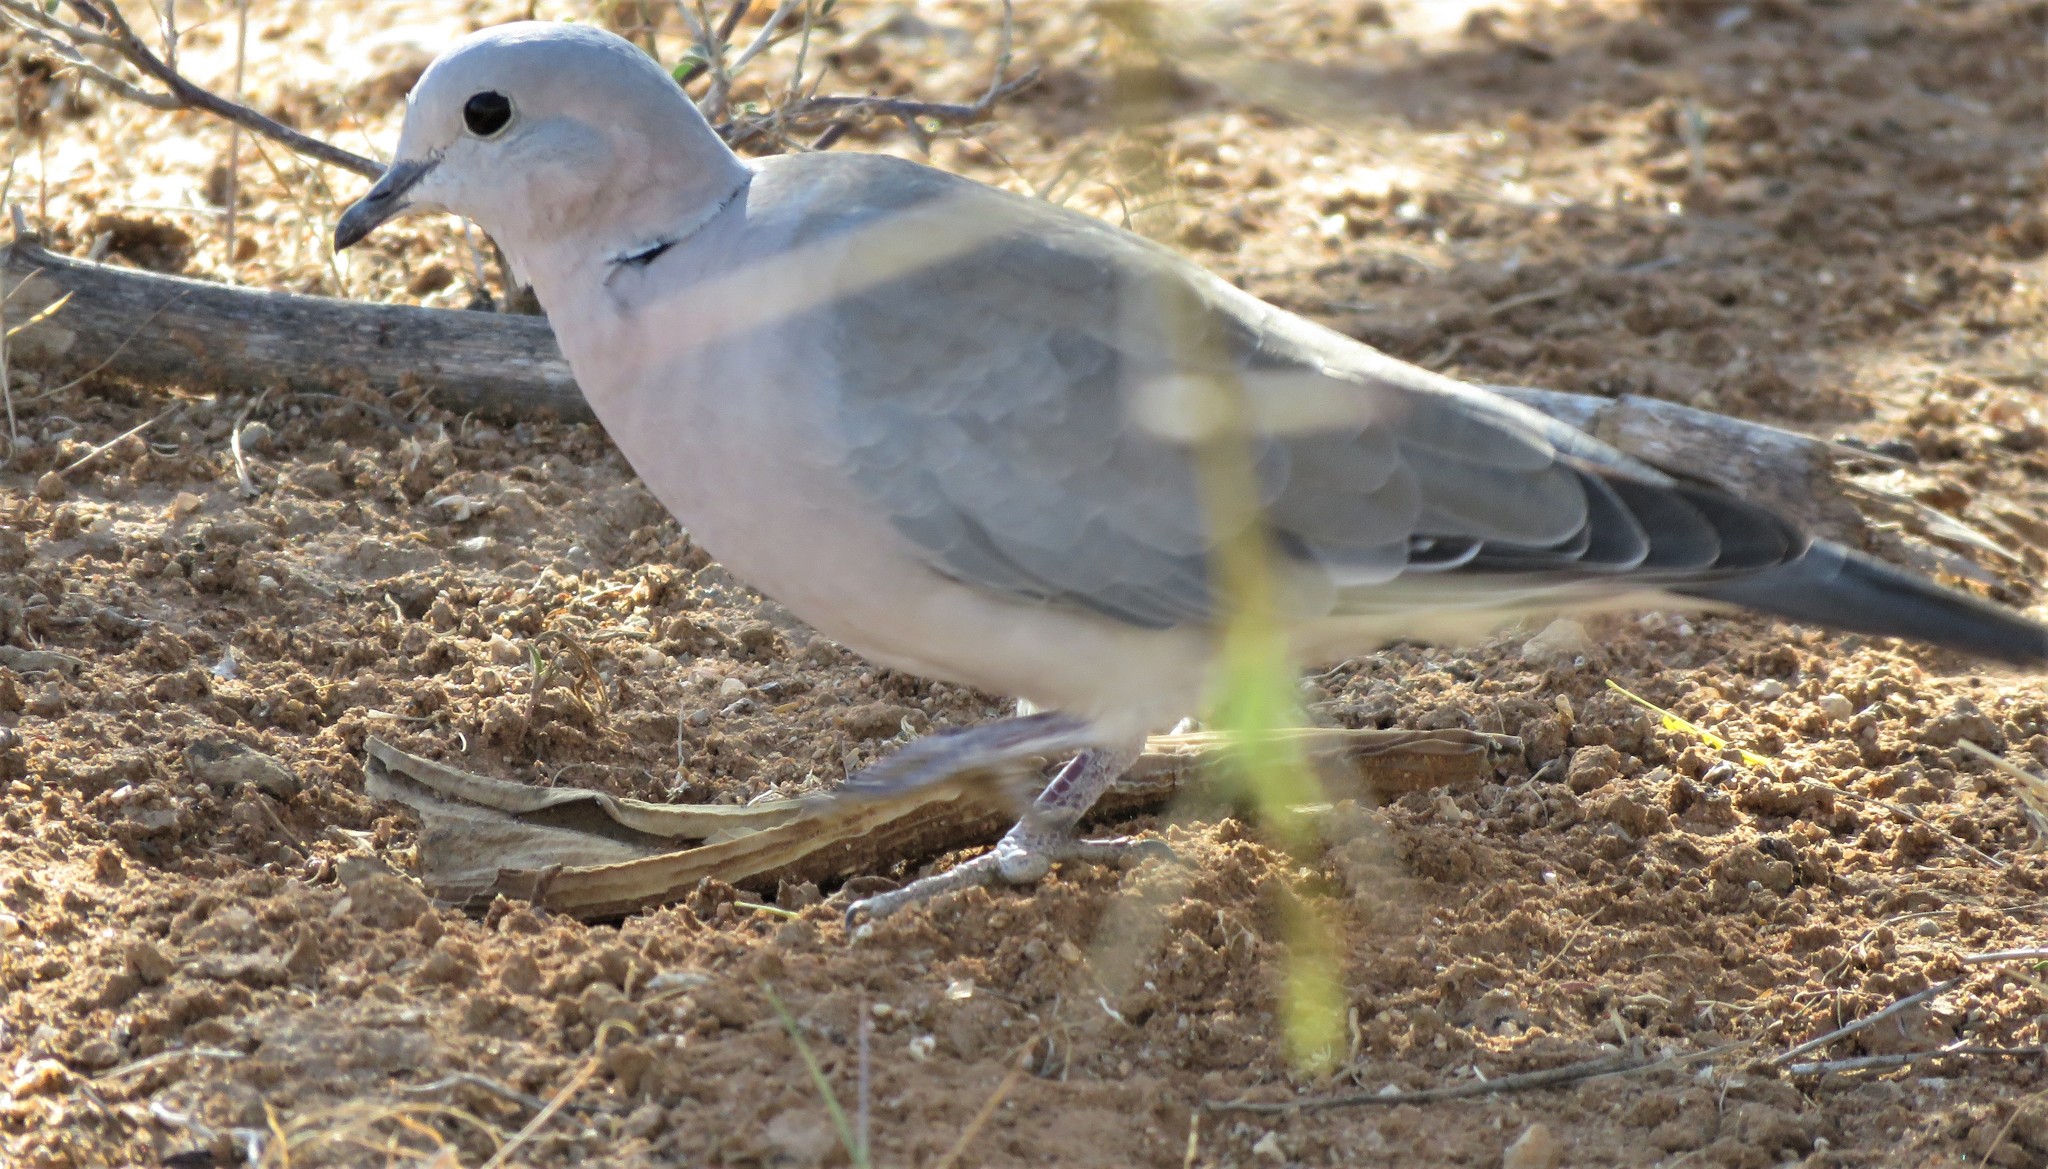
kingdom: Animalia
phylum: Chordata
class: Aves
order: Columbiformes
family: Columbidae
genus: Streptopelia
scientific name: Streptopelia capicola
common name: Ring-necked dove
